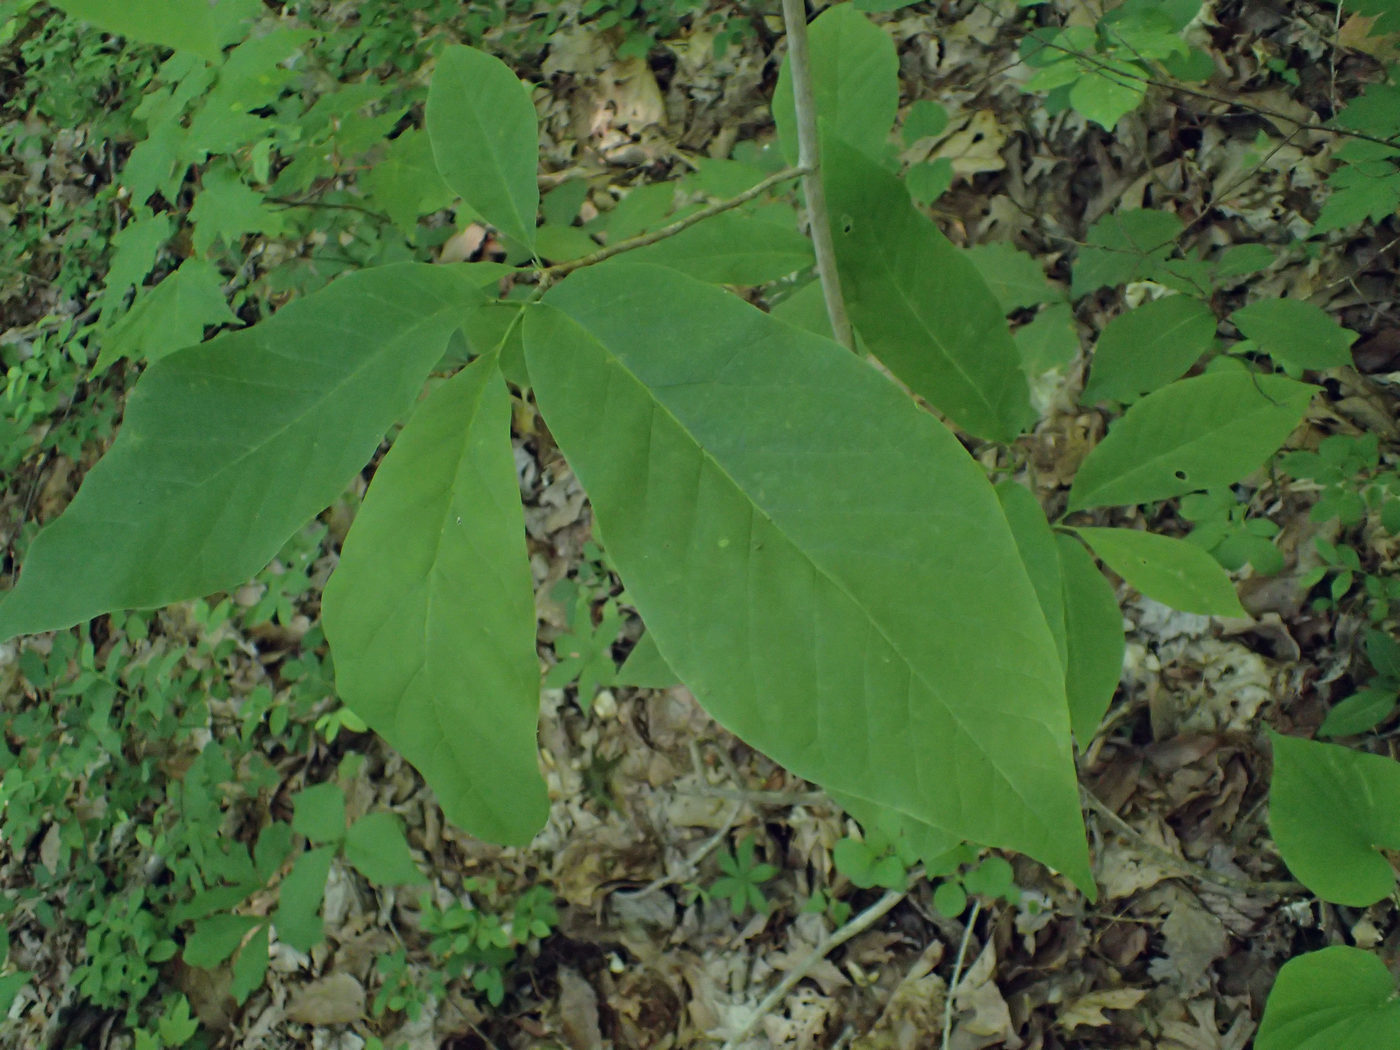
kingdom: Plantae
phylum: Tracheophyta
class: Magnoliopsida
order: Magnoliales
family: Magnoliaceae
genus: Magnolia
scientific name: Magnolia acuminata
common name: Cucumber magnolia
